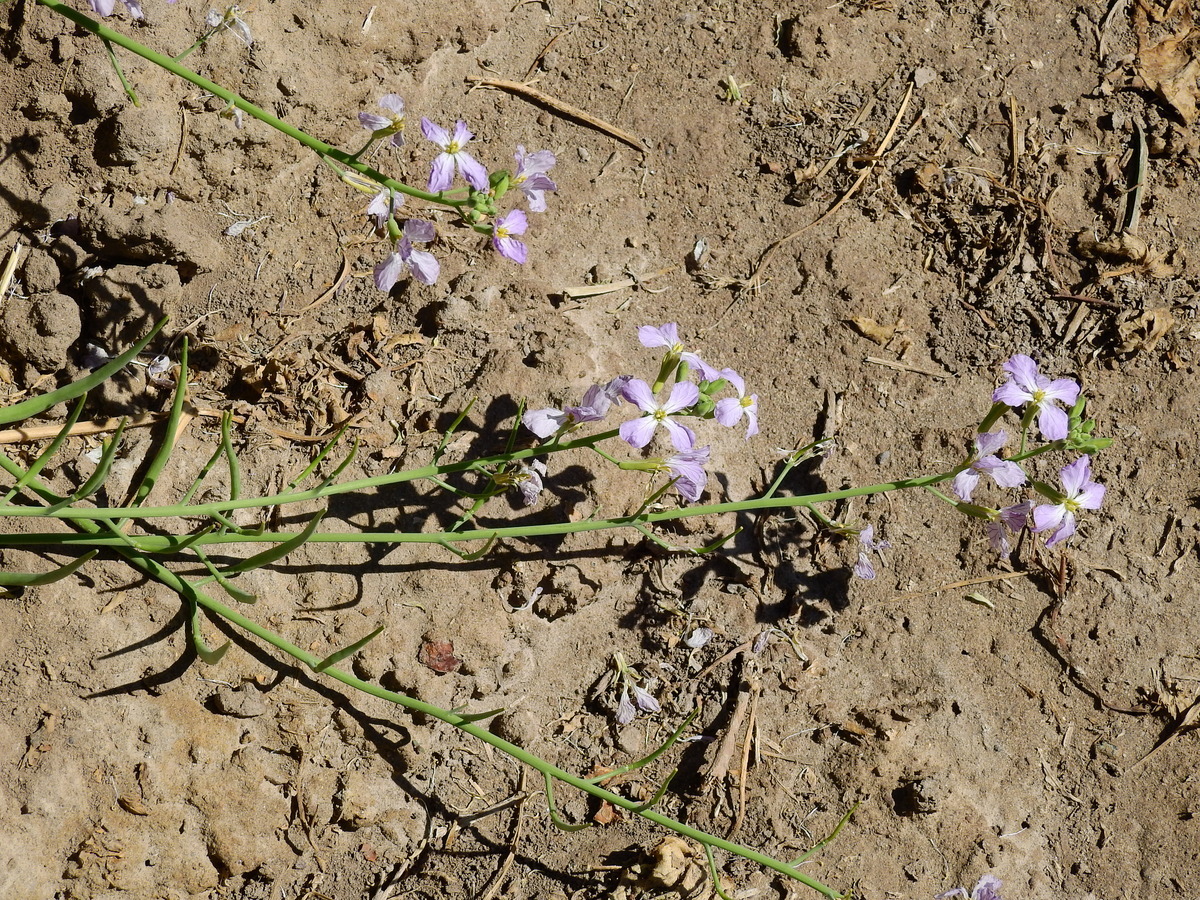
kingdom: Plantae
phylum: Tracheophyta
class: Magnoliopsida
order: Brassicales
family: Brassicaceae
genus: Raphanus
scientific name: Raphanus sativus
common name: Cultivated radish
